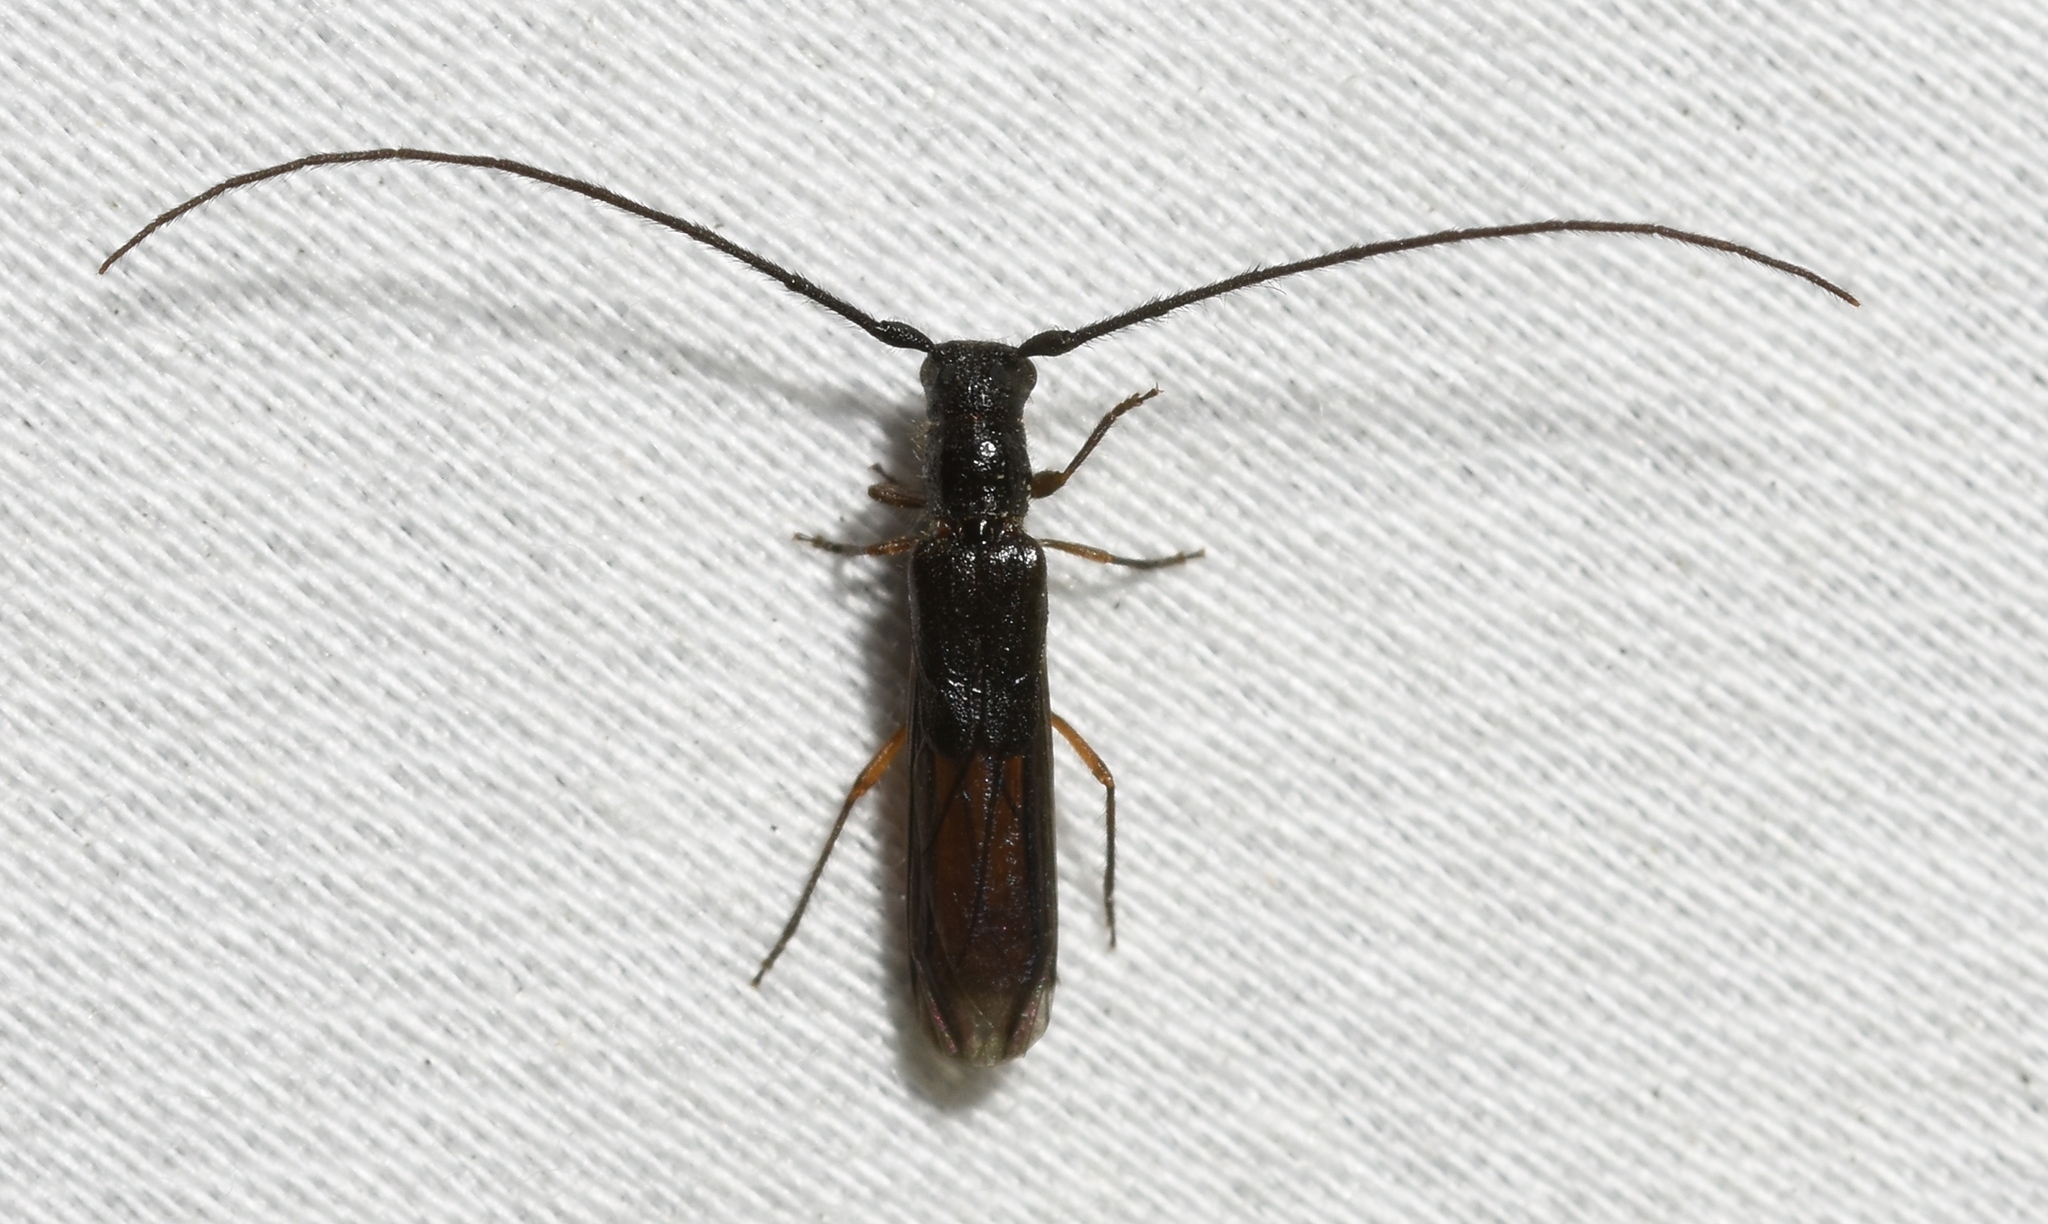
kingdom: Animalia
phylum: Arthropoda
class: Insecta
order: Coleoptera
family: Cerambycidae
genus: Methia
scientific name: Methia
